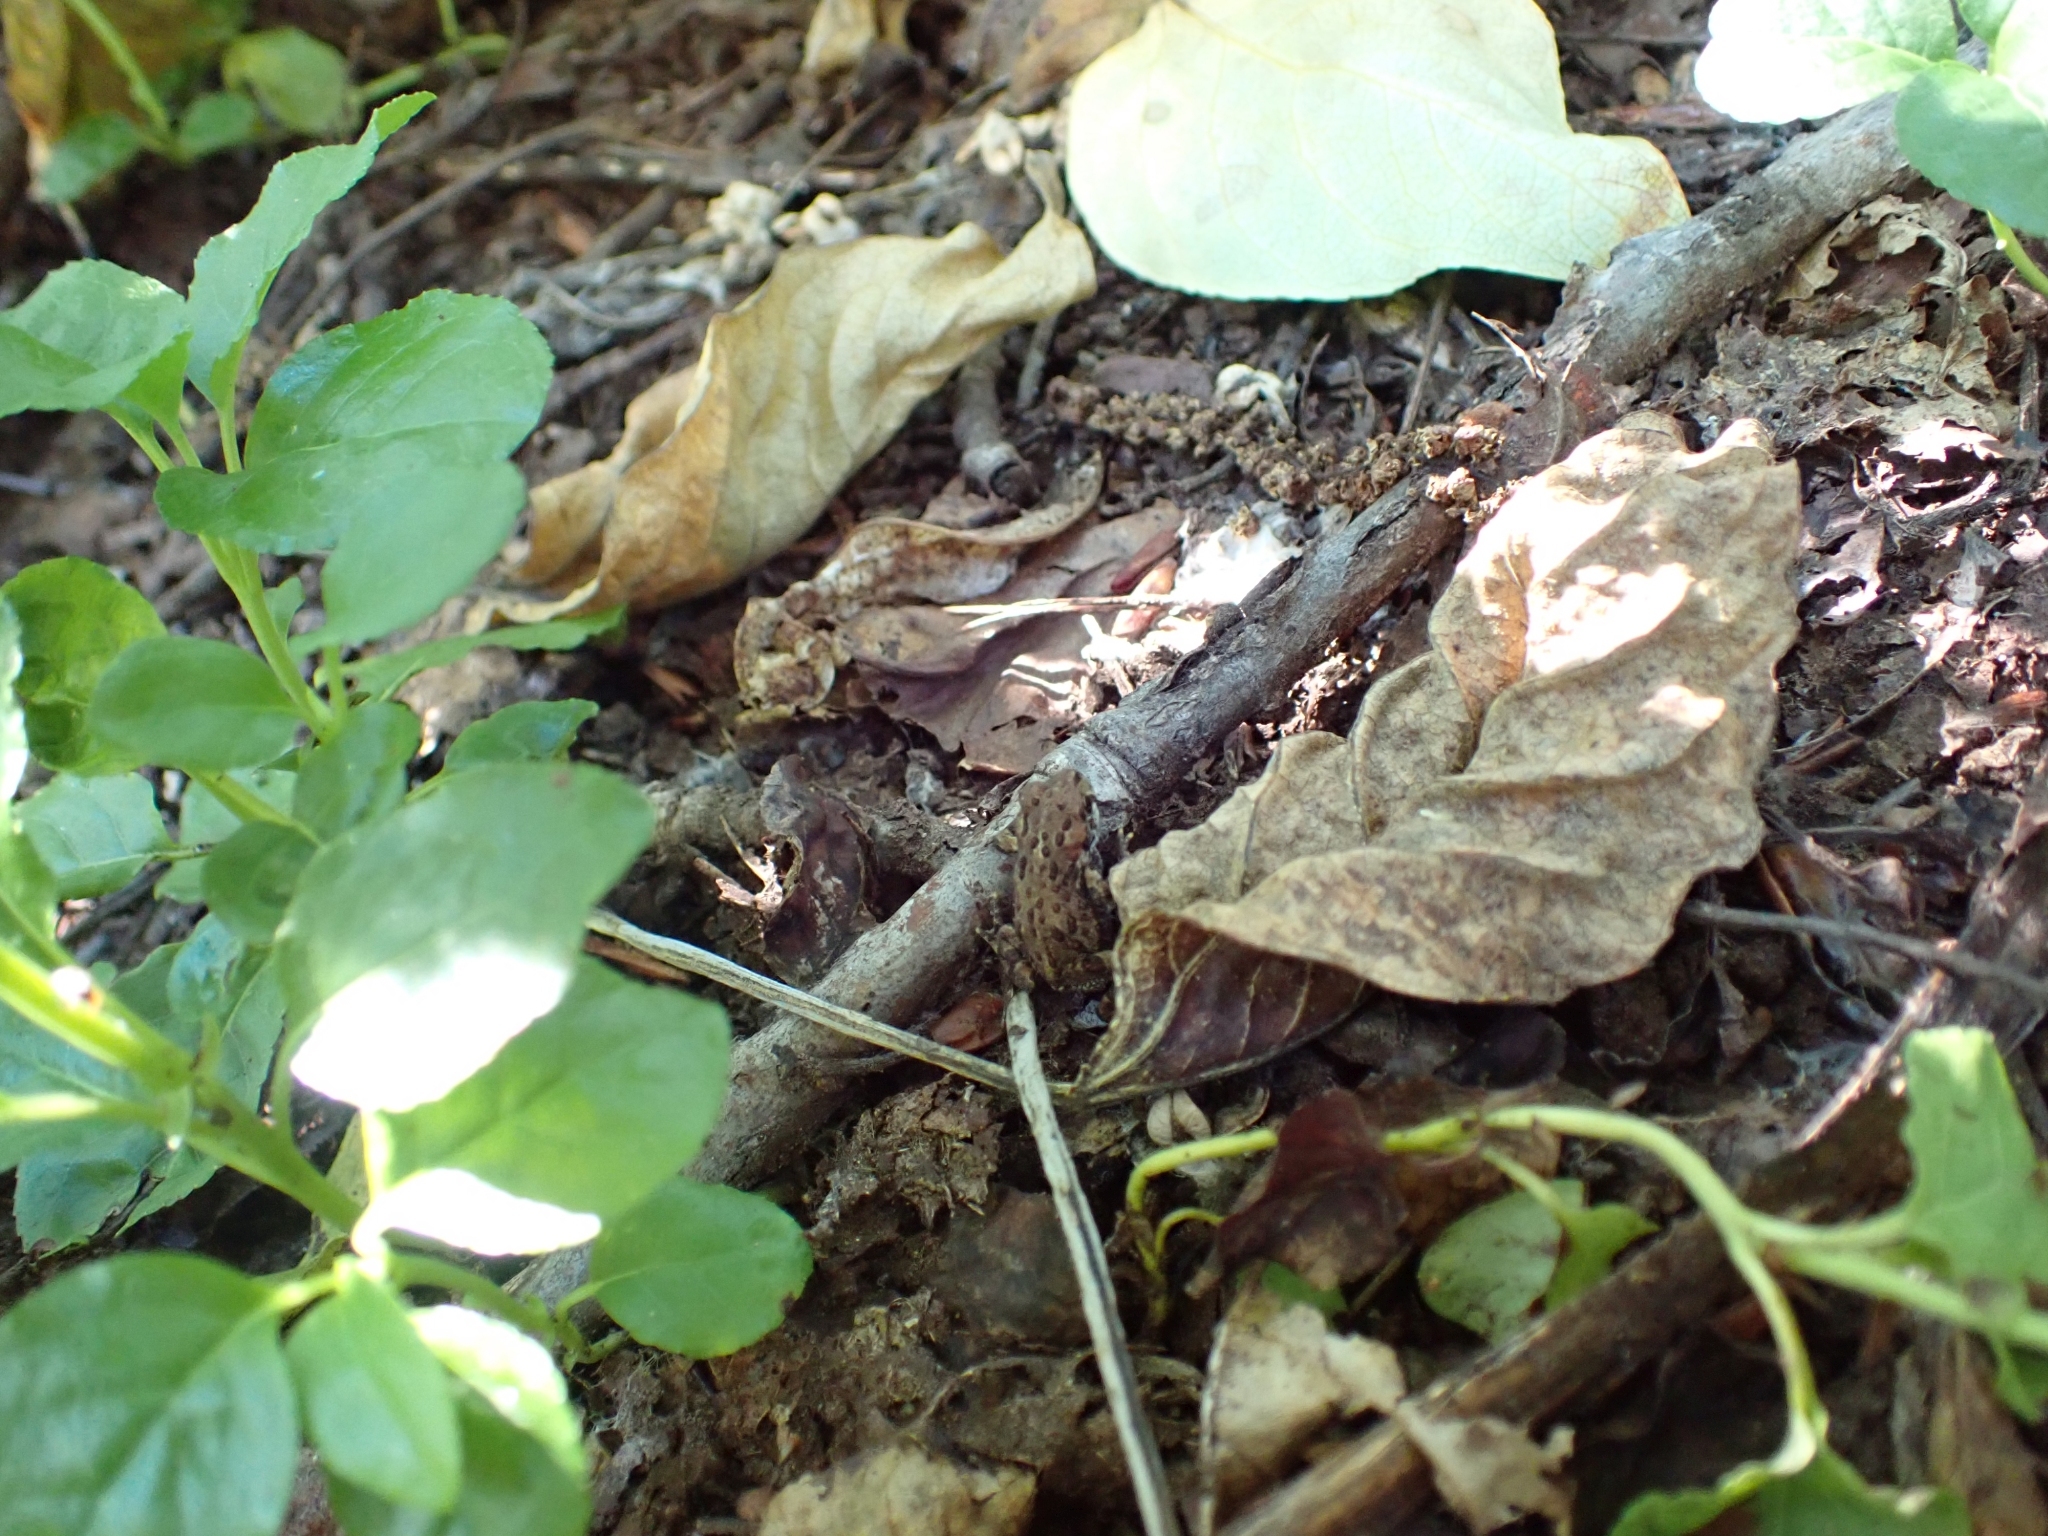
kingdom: Animalia
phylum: Chordata
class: Amphibia
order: Anura
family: Bufonidae
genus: Anaxyrus
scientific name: Anaxyrus boreas
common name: Western toad
